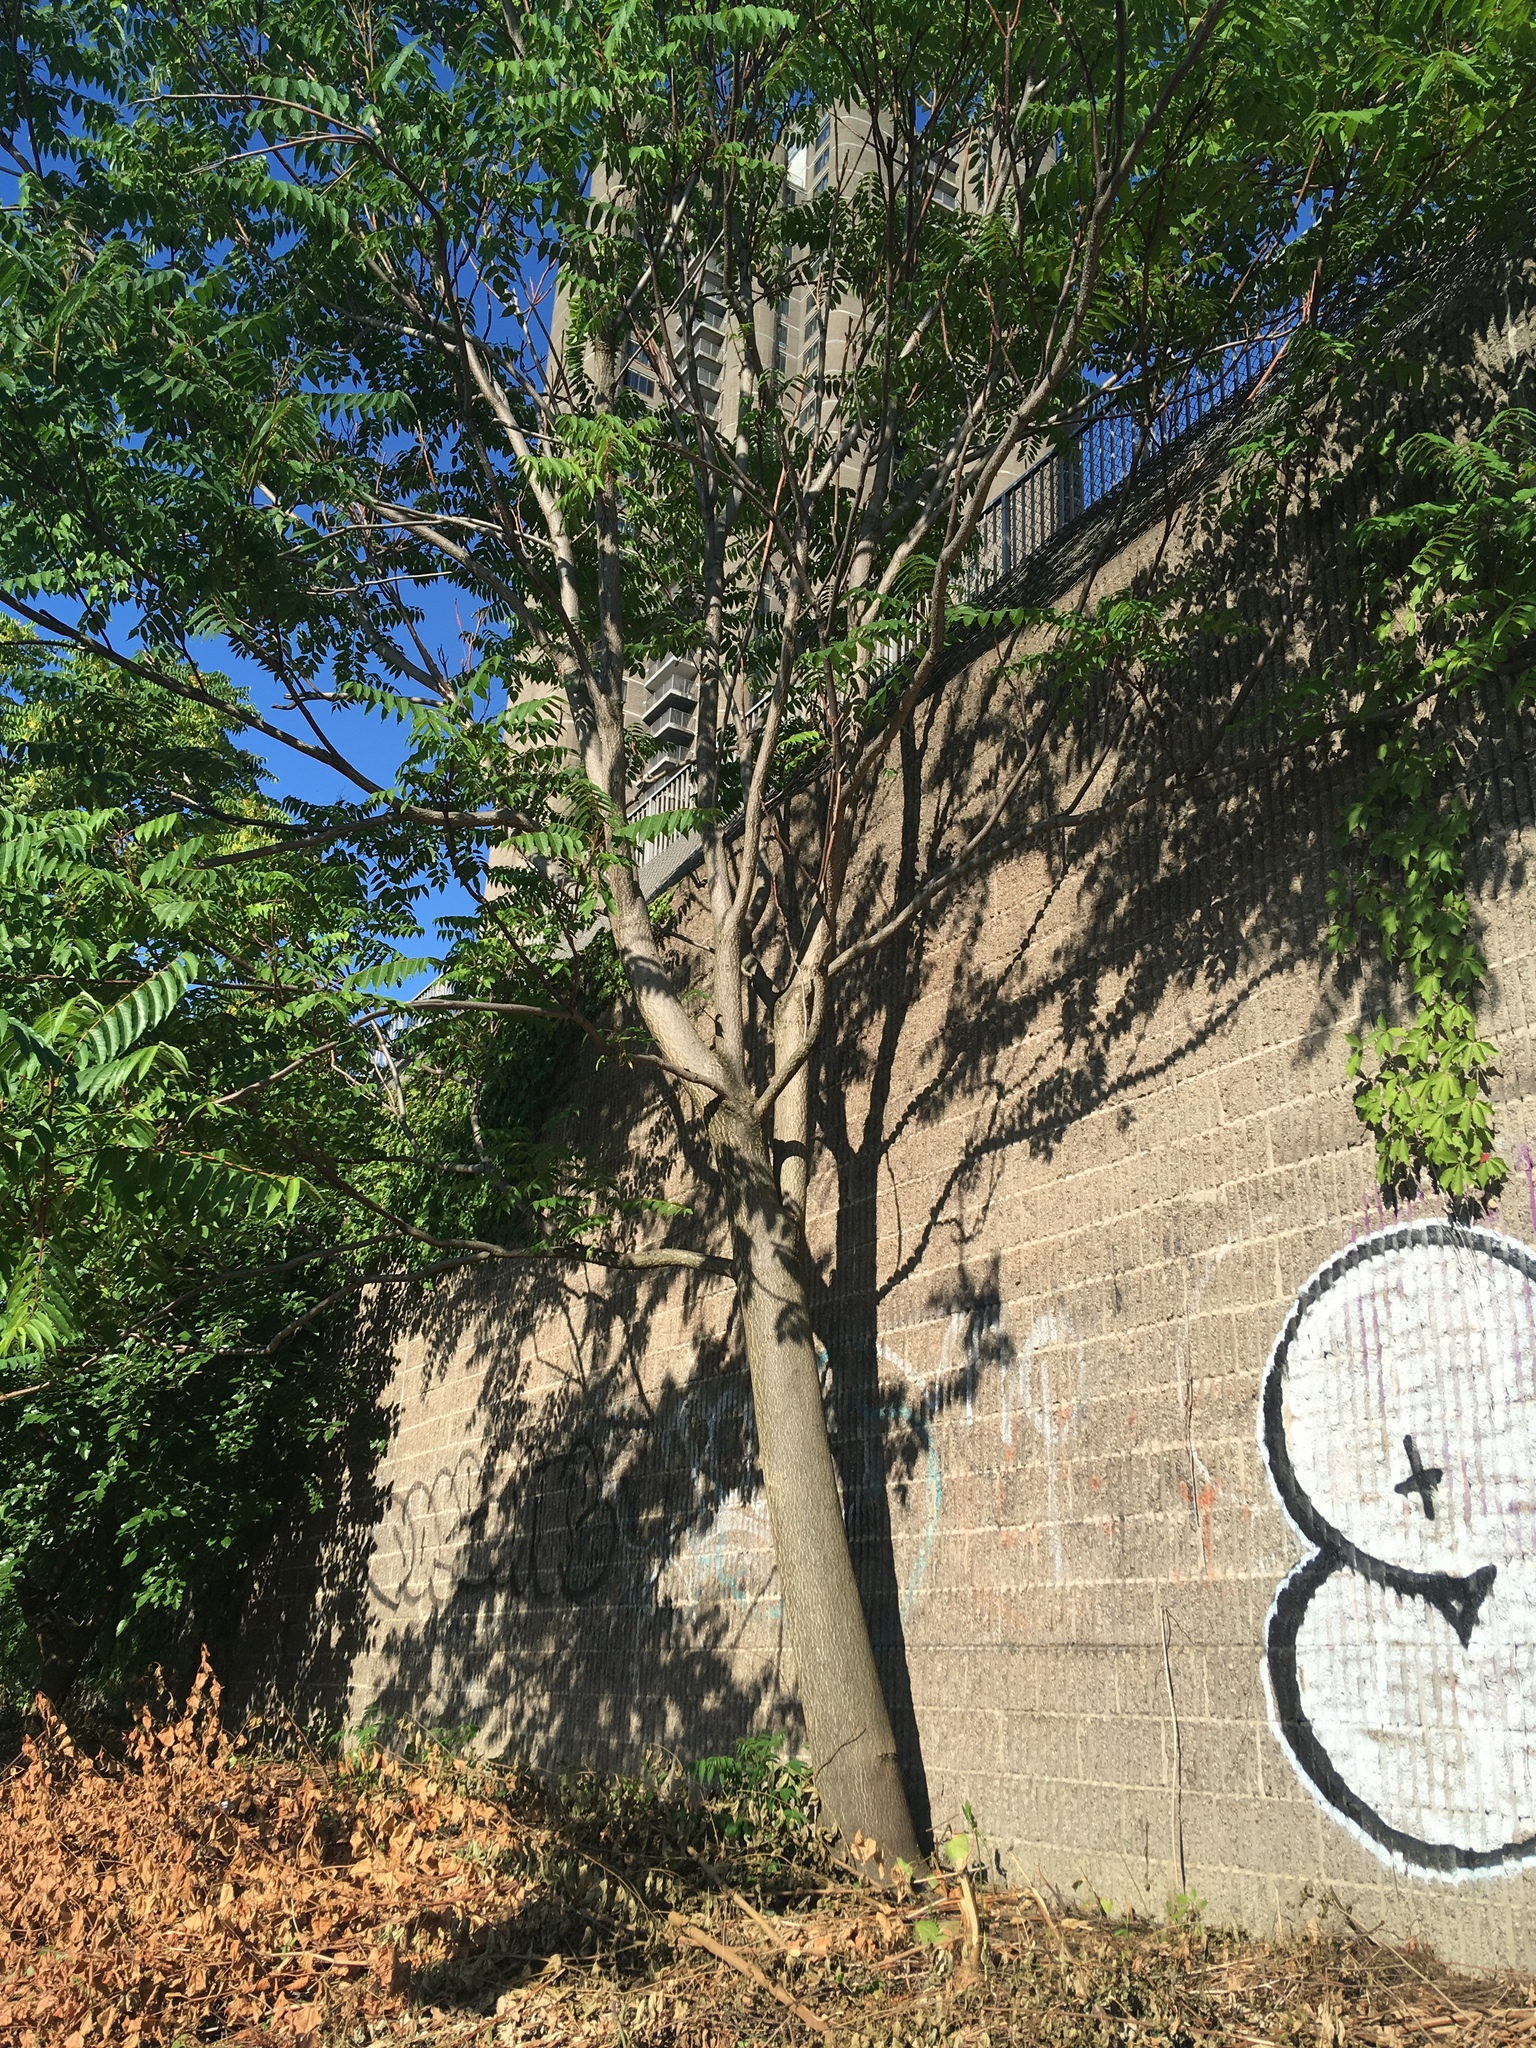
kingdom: Plantae
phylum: Tracheophyta
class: Magnoliopsida
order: Sapindales
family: Simaroubaceae
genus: Ailanthus
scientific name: Ailanthus altissima
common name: Tree-of-heaven
